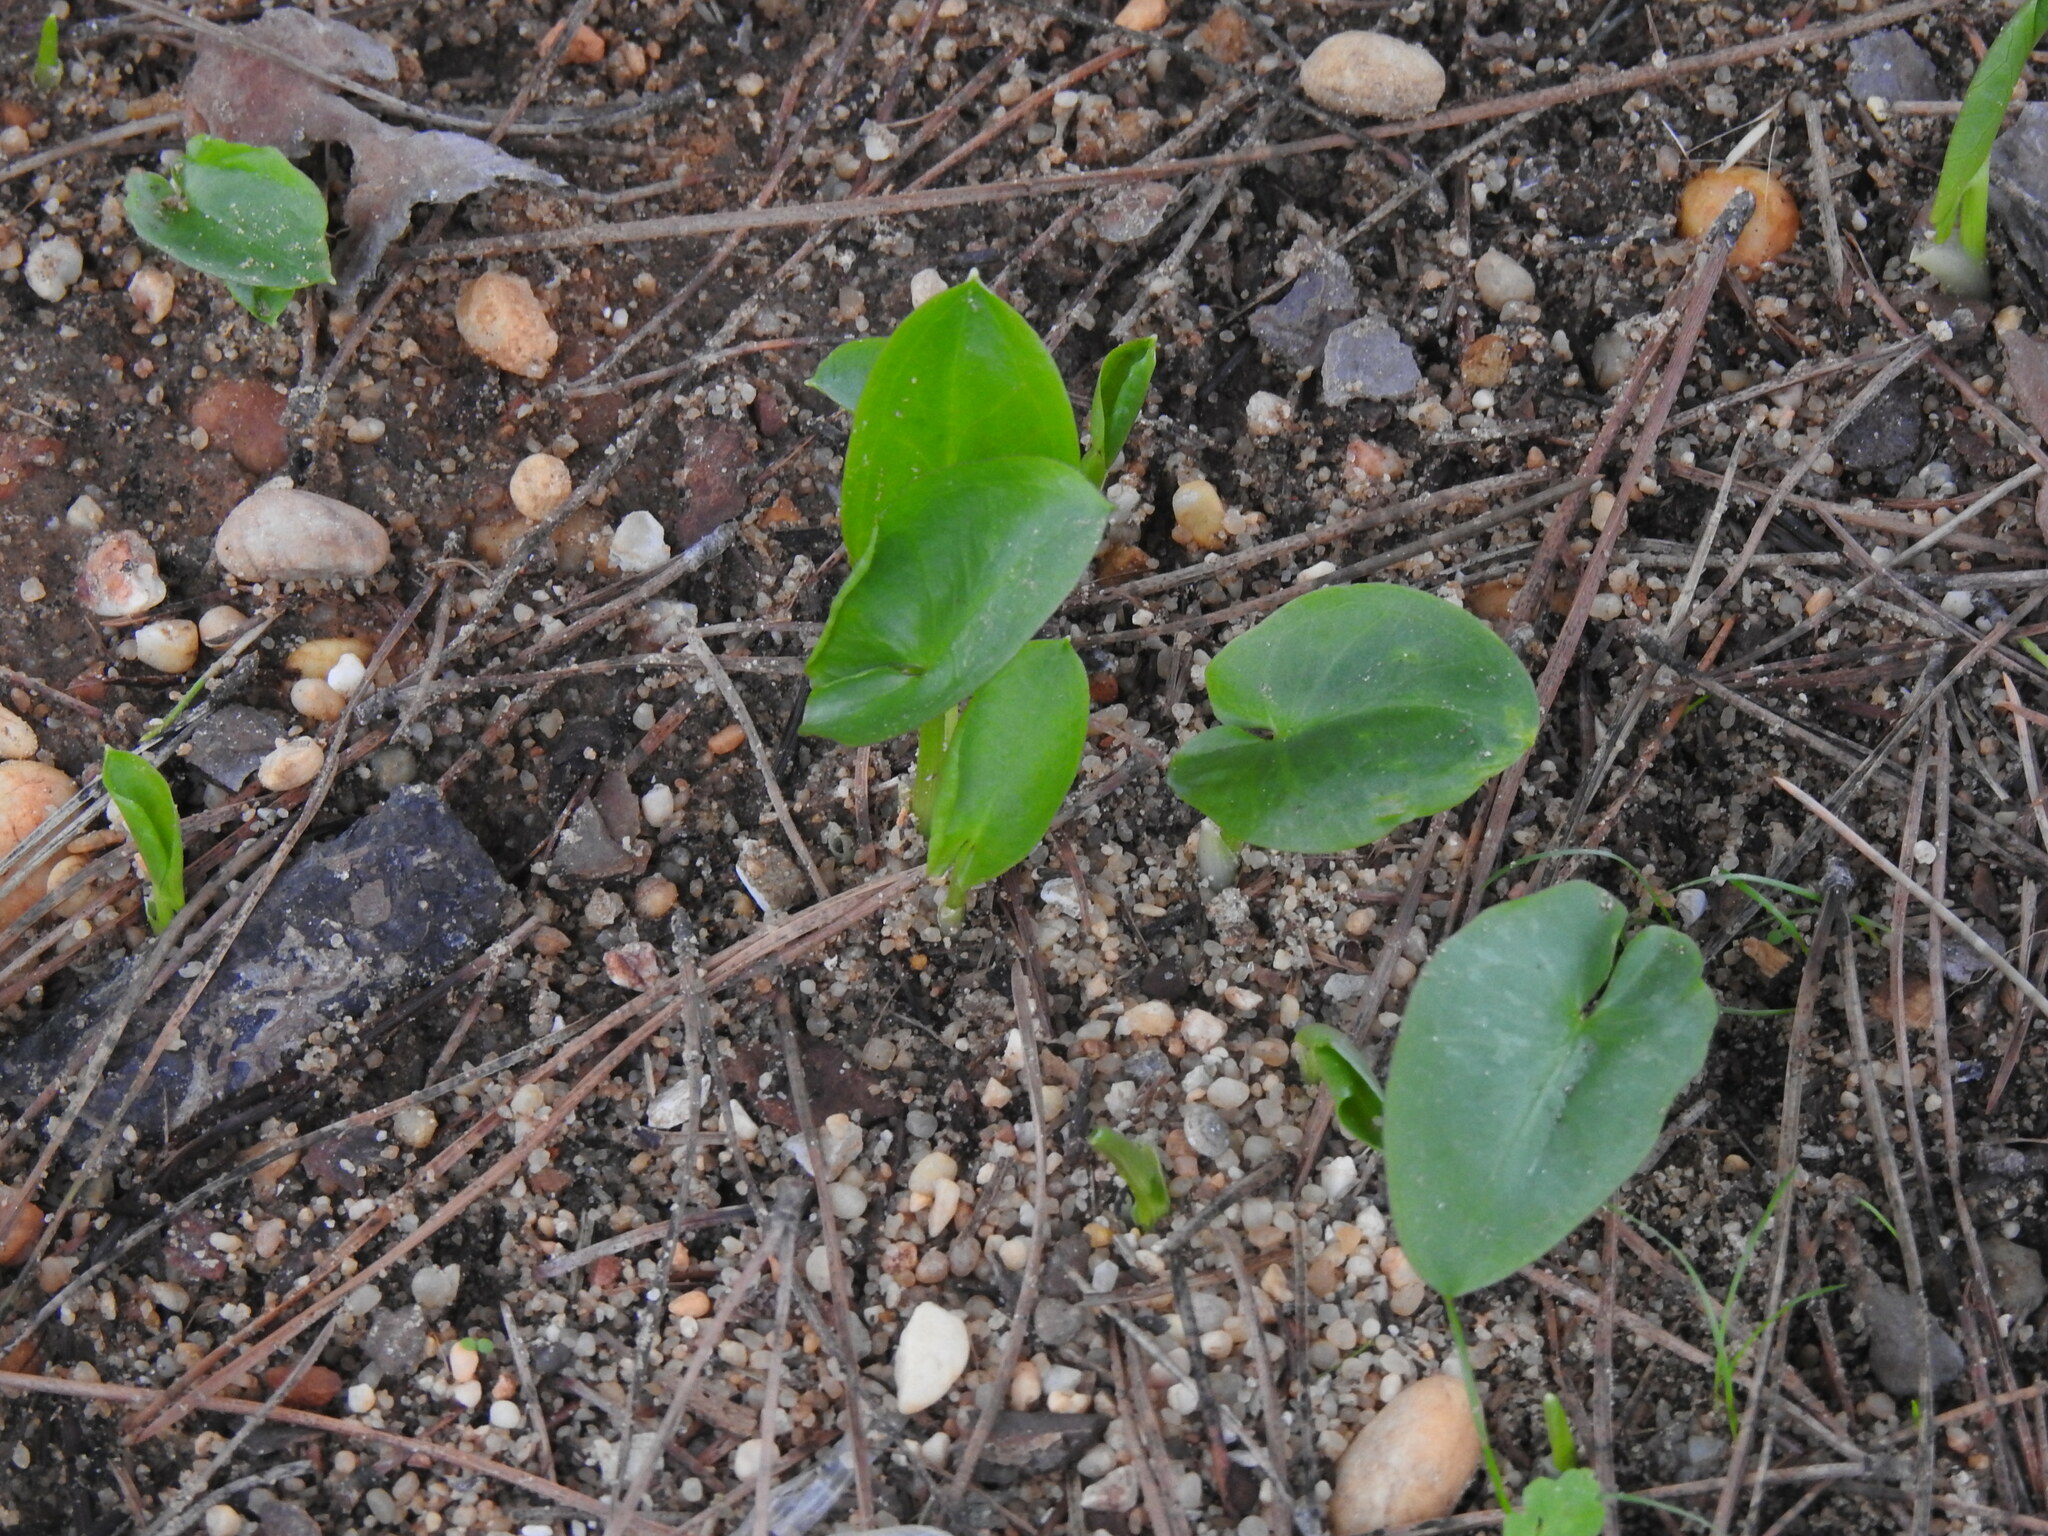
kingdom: Plantae
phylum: Tracheophyta
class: Liliopsida
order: Alismatales
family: Araceae
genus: Arisarum
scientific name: Arisarum simorrhinum
